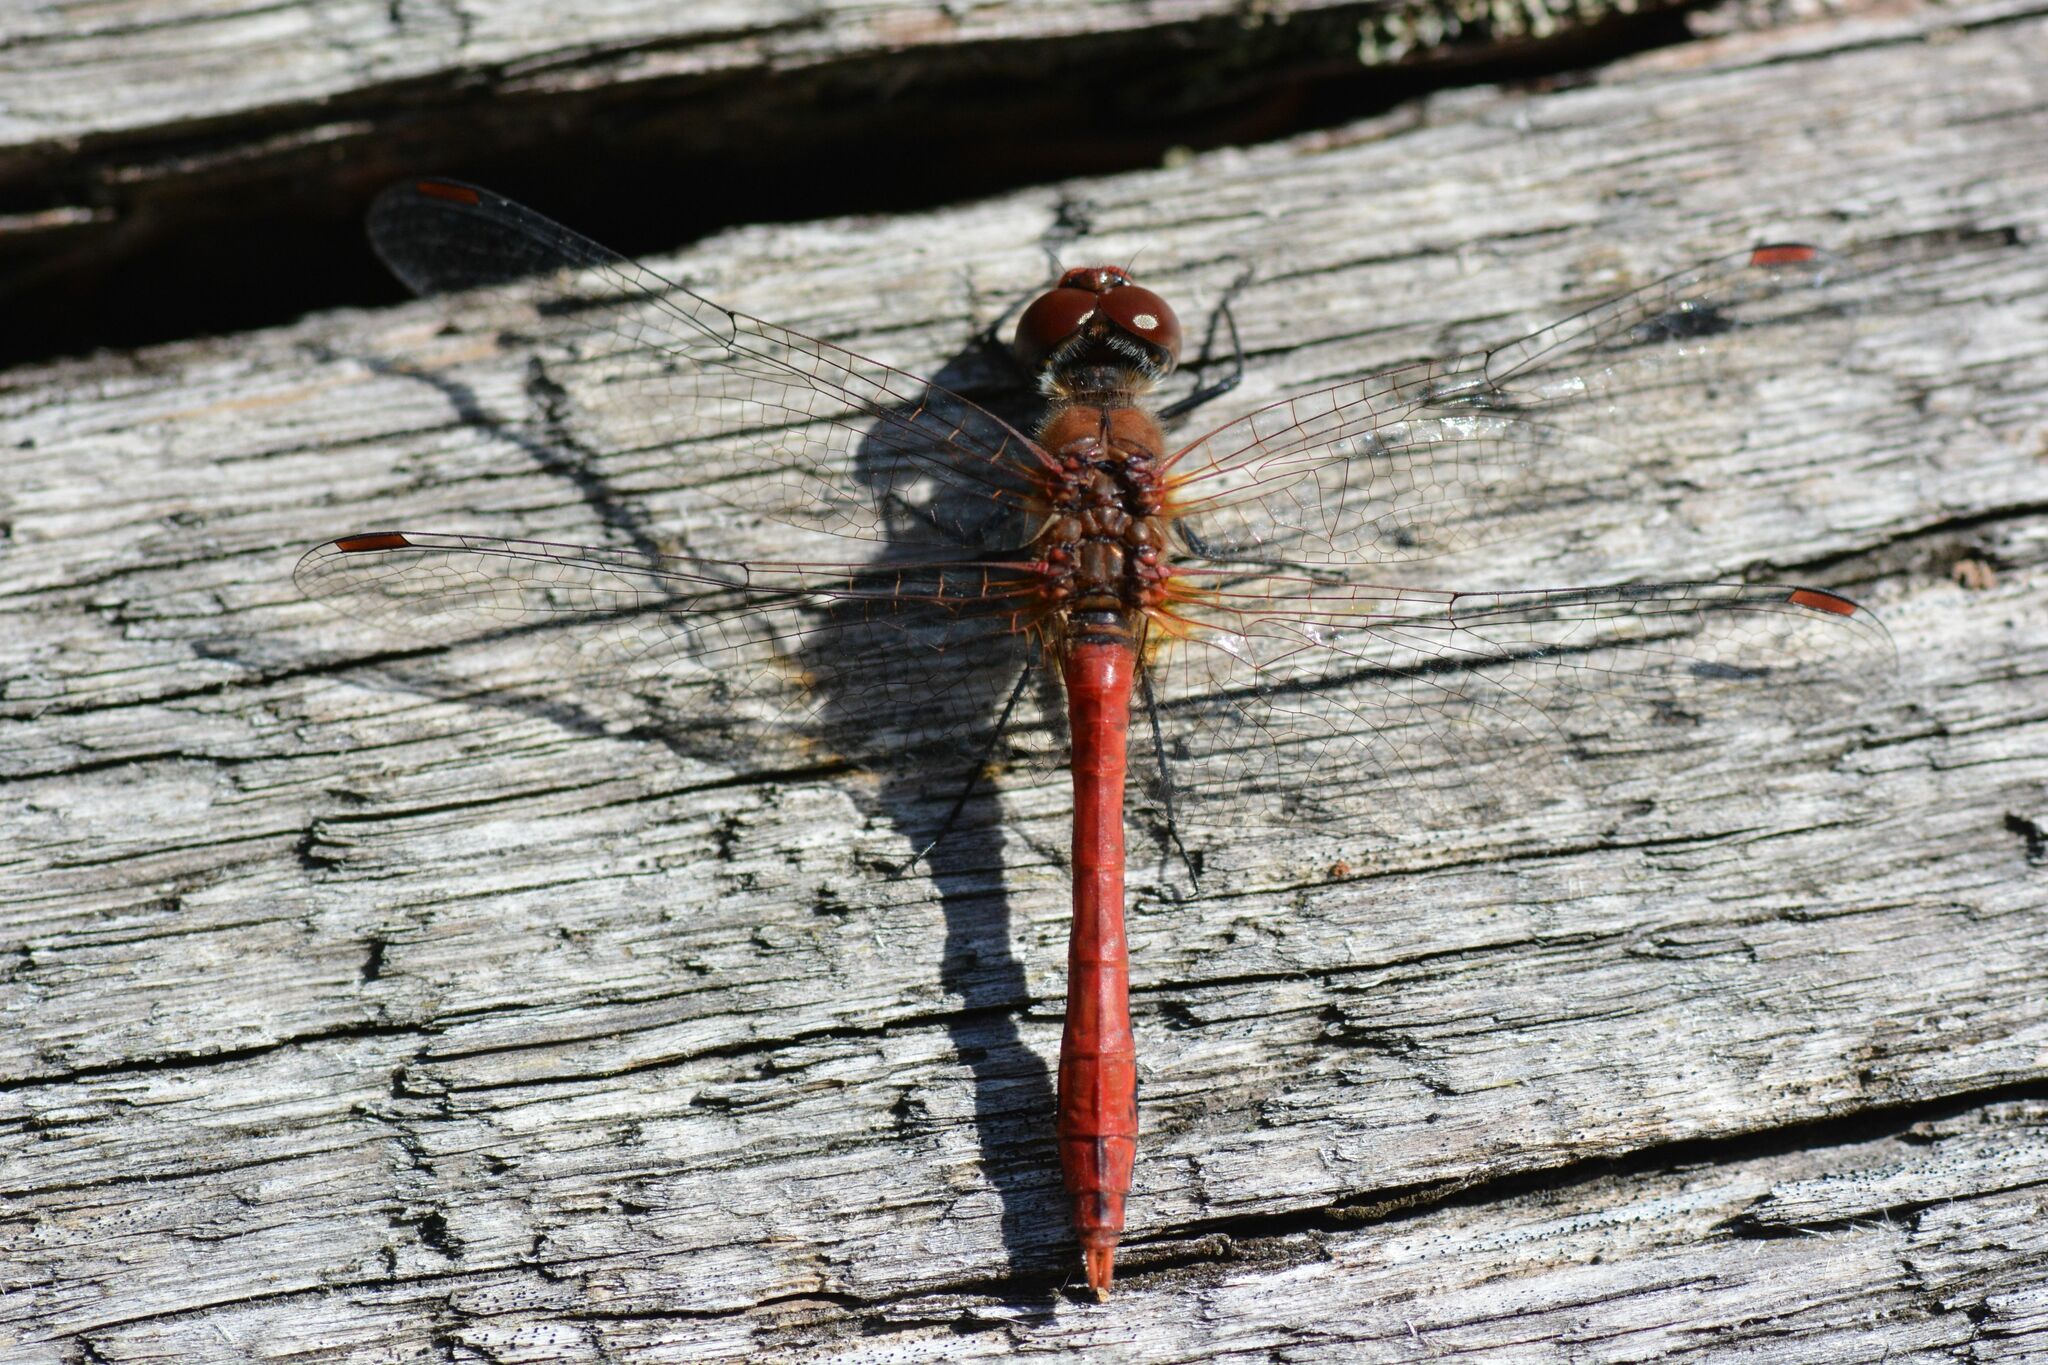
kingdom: Animalia
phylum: Arthropoda
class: Insecta
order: Odonata
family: Libellulidae
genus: Sympetrum
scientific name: Sympetrum sanguineum
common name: Ruddy darter
